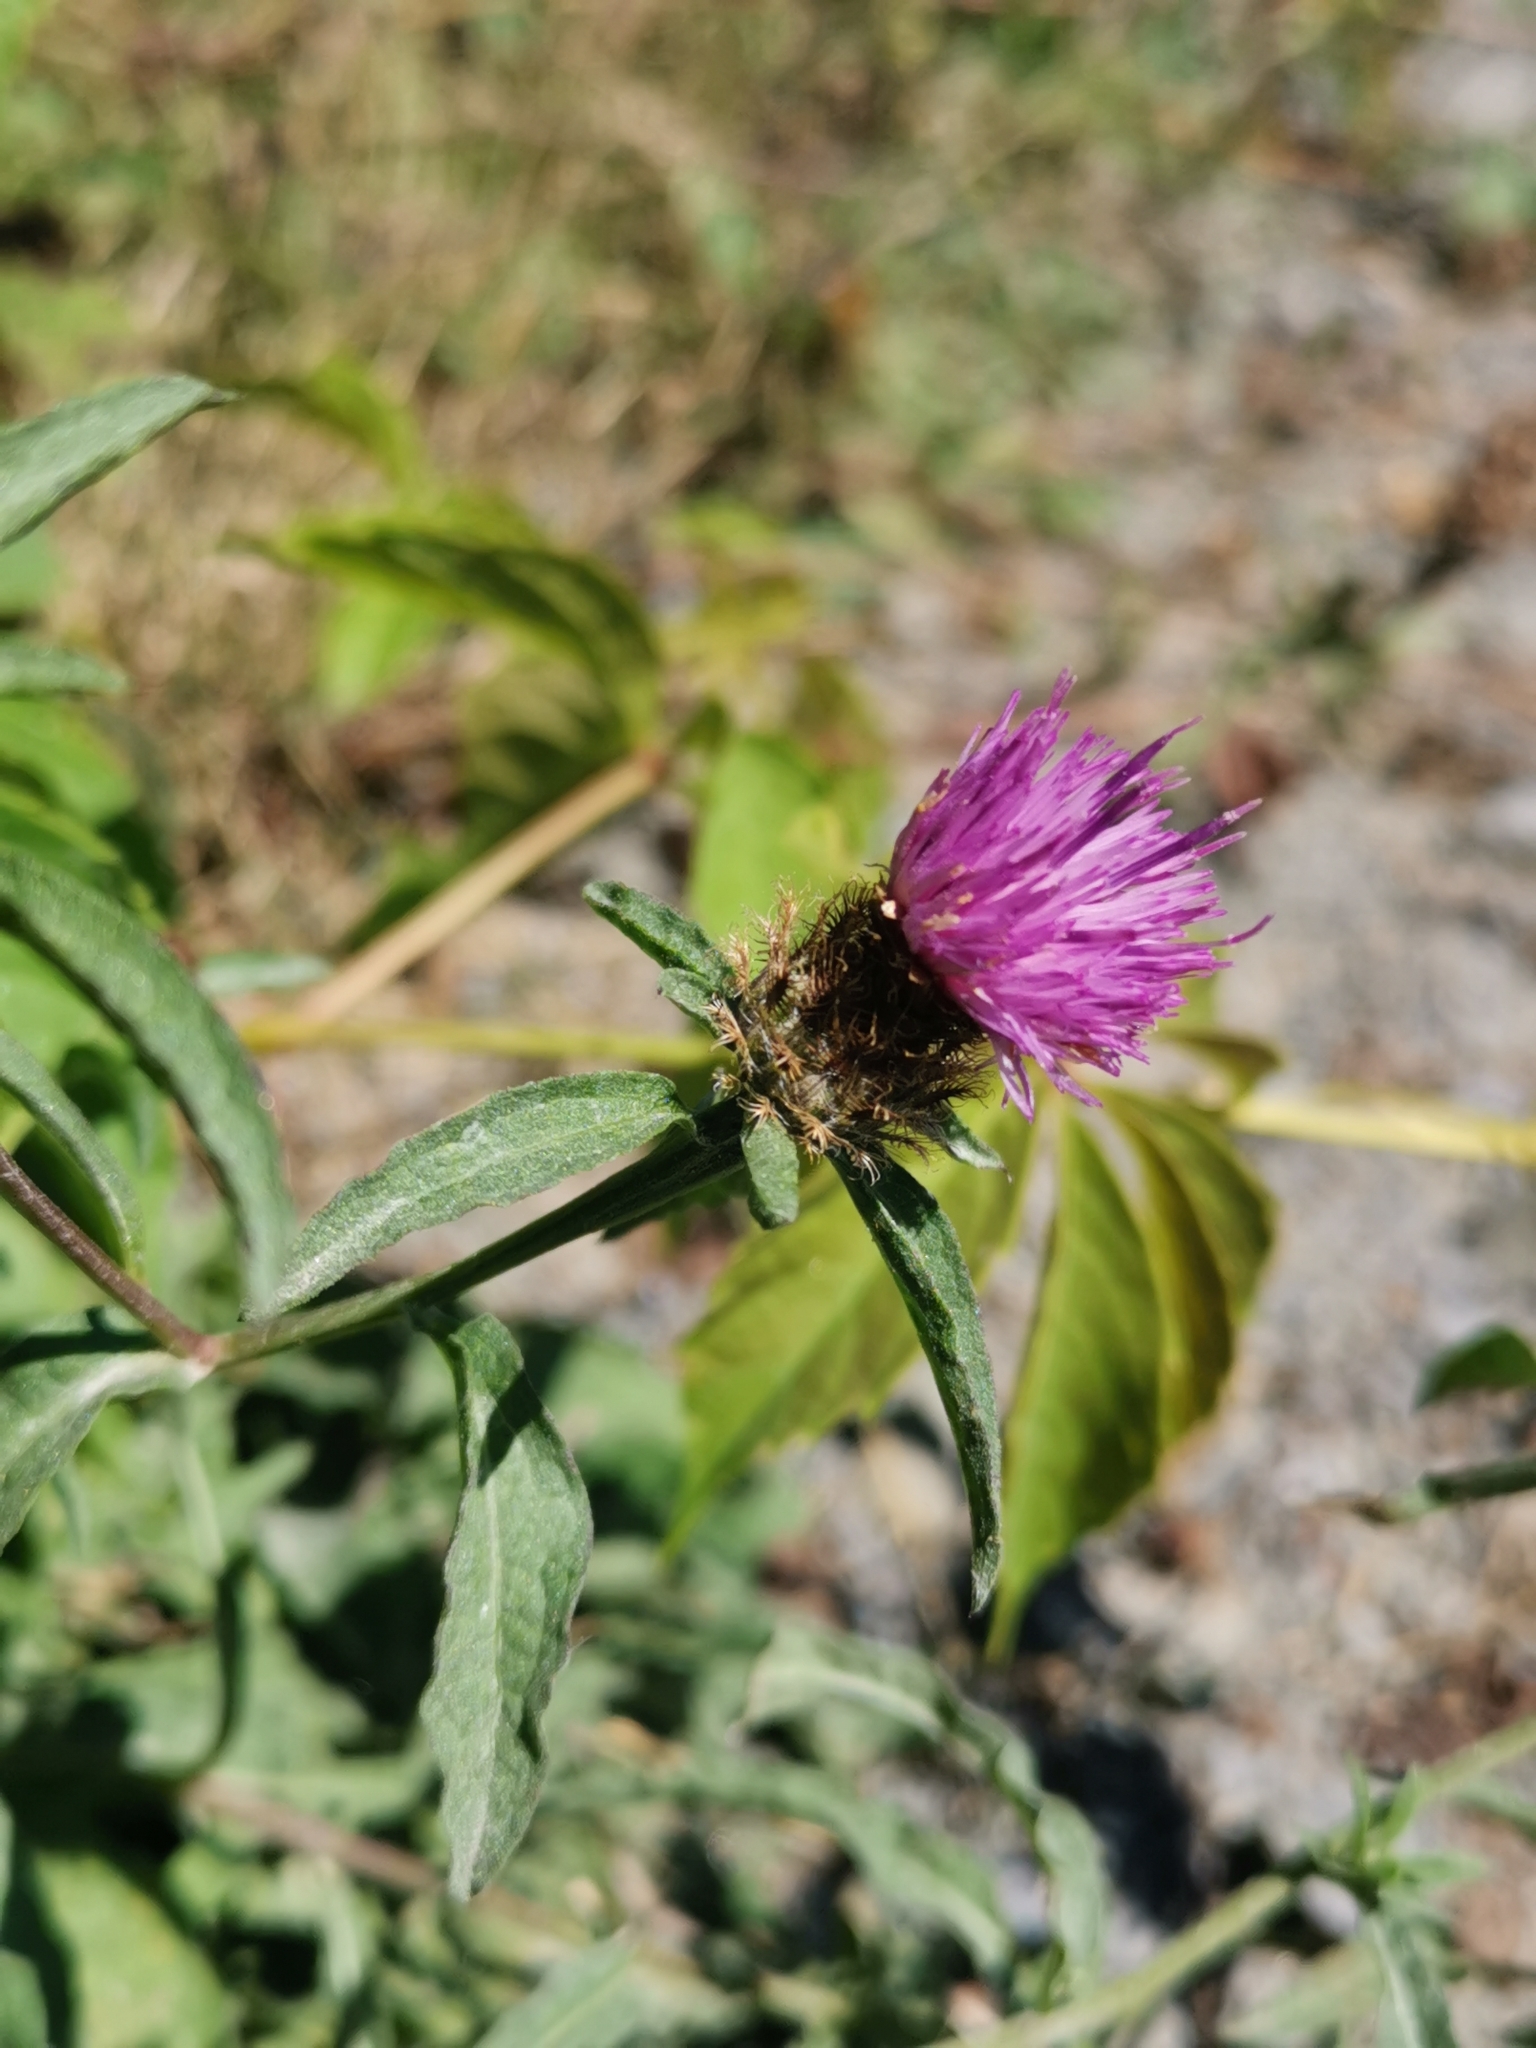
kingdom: Plantae
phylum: Tracheophyta
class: Magnoliopsida
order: Asterales
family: Asteraceae
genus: Centaurea
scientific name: Centaurea nigra
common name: Lesser knapweed
